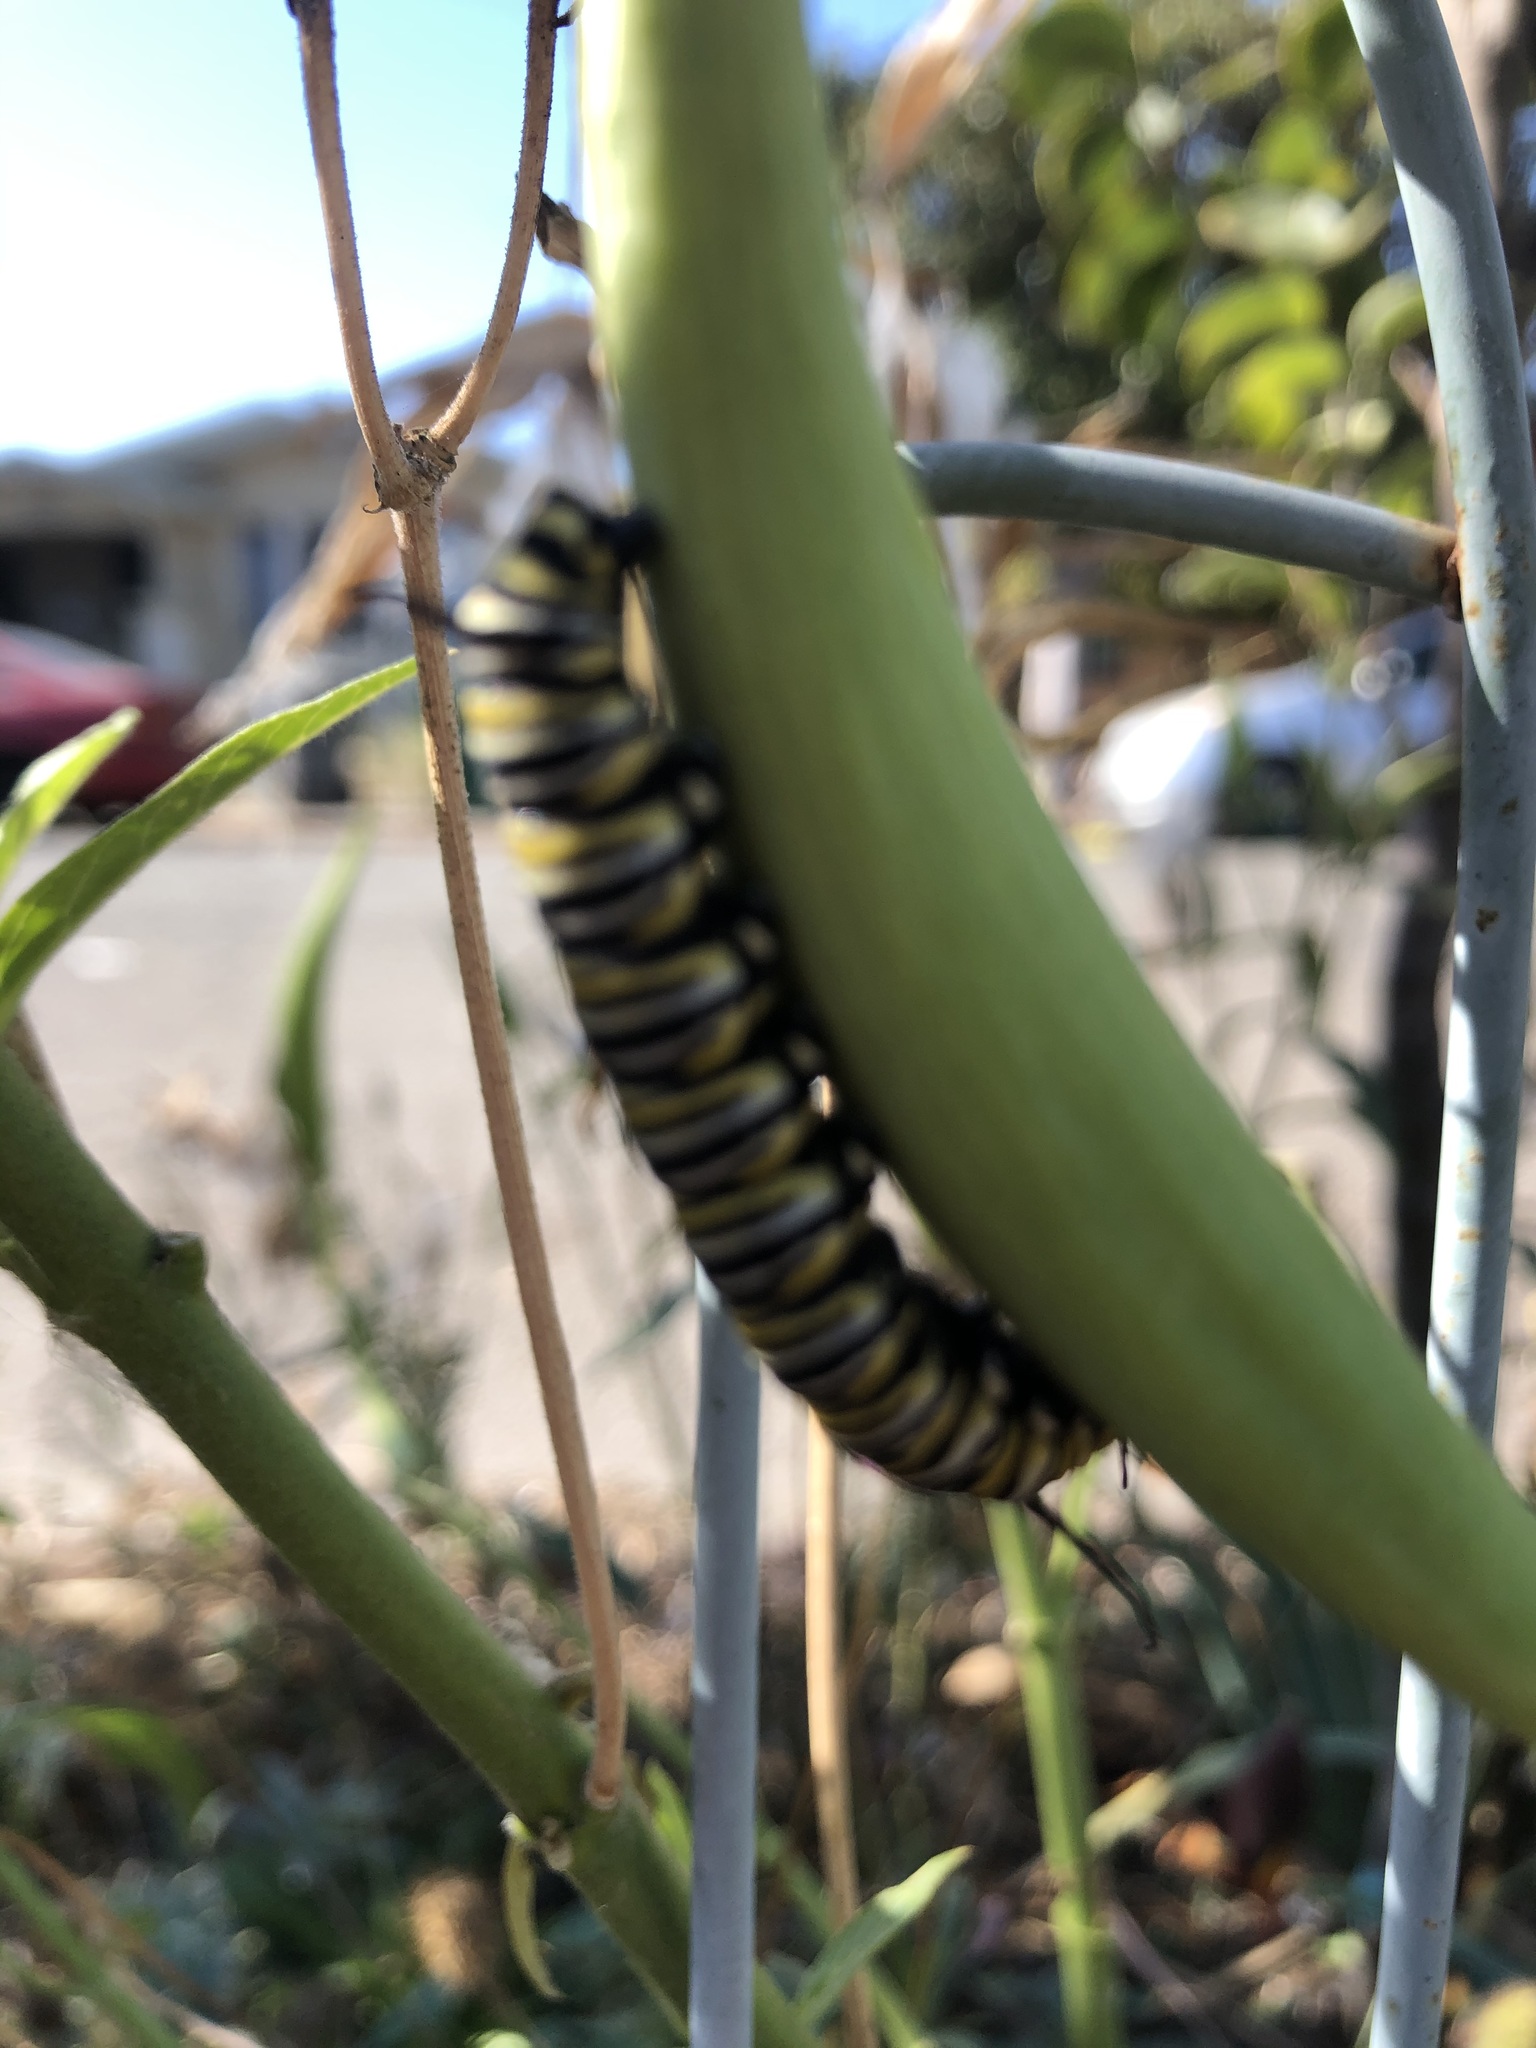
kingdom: Animalia
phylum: Arthropoda
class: Insecta
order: Lepidoptera
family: Nymphalidae
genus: Danaus
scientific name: Danaus plexippus
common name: Monarch
